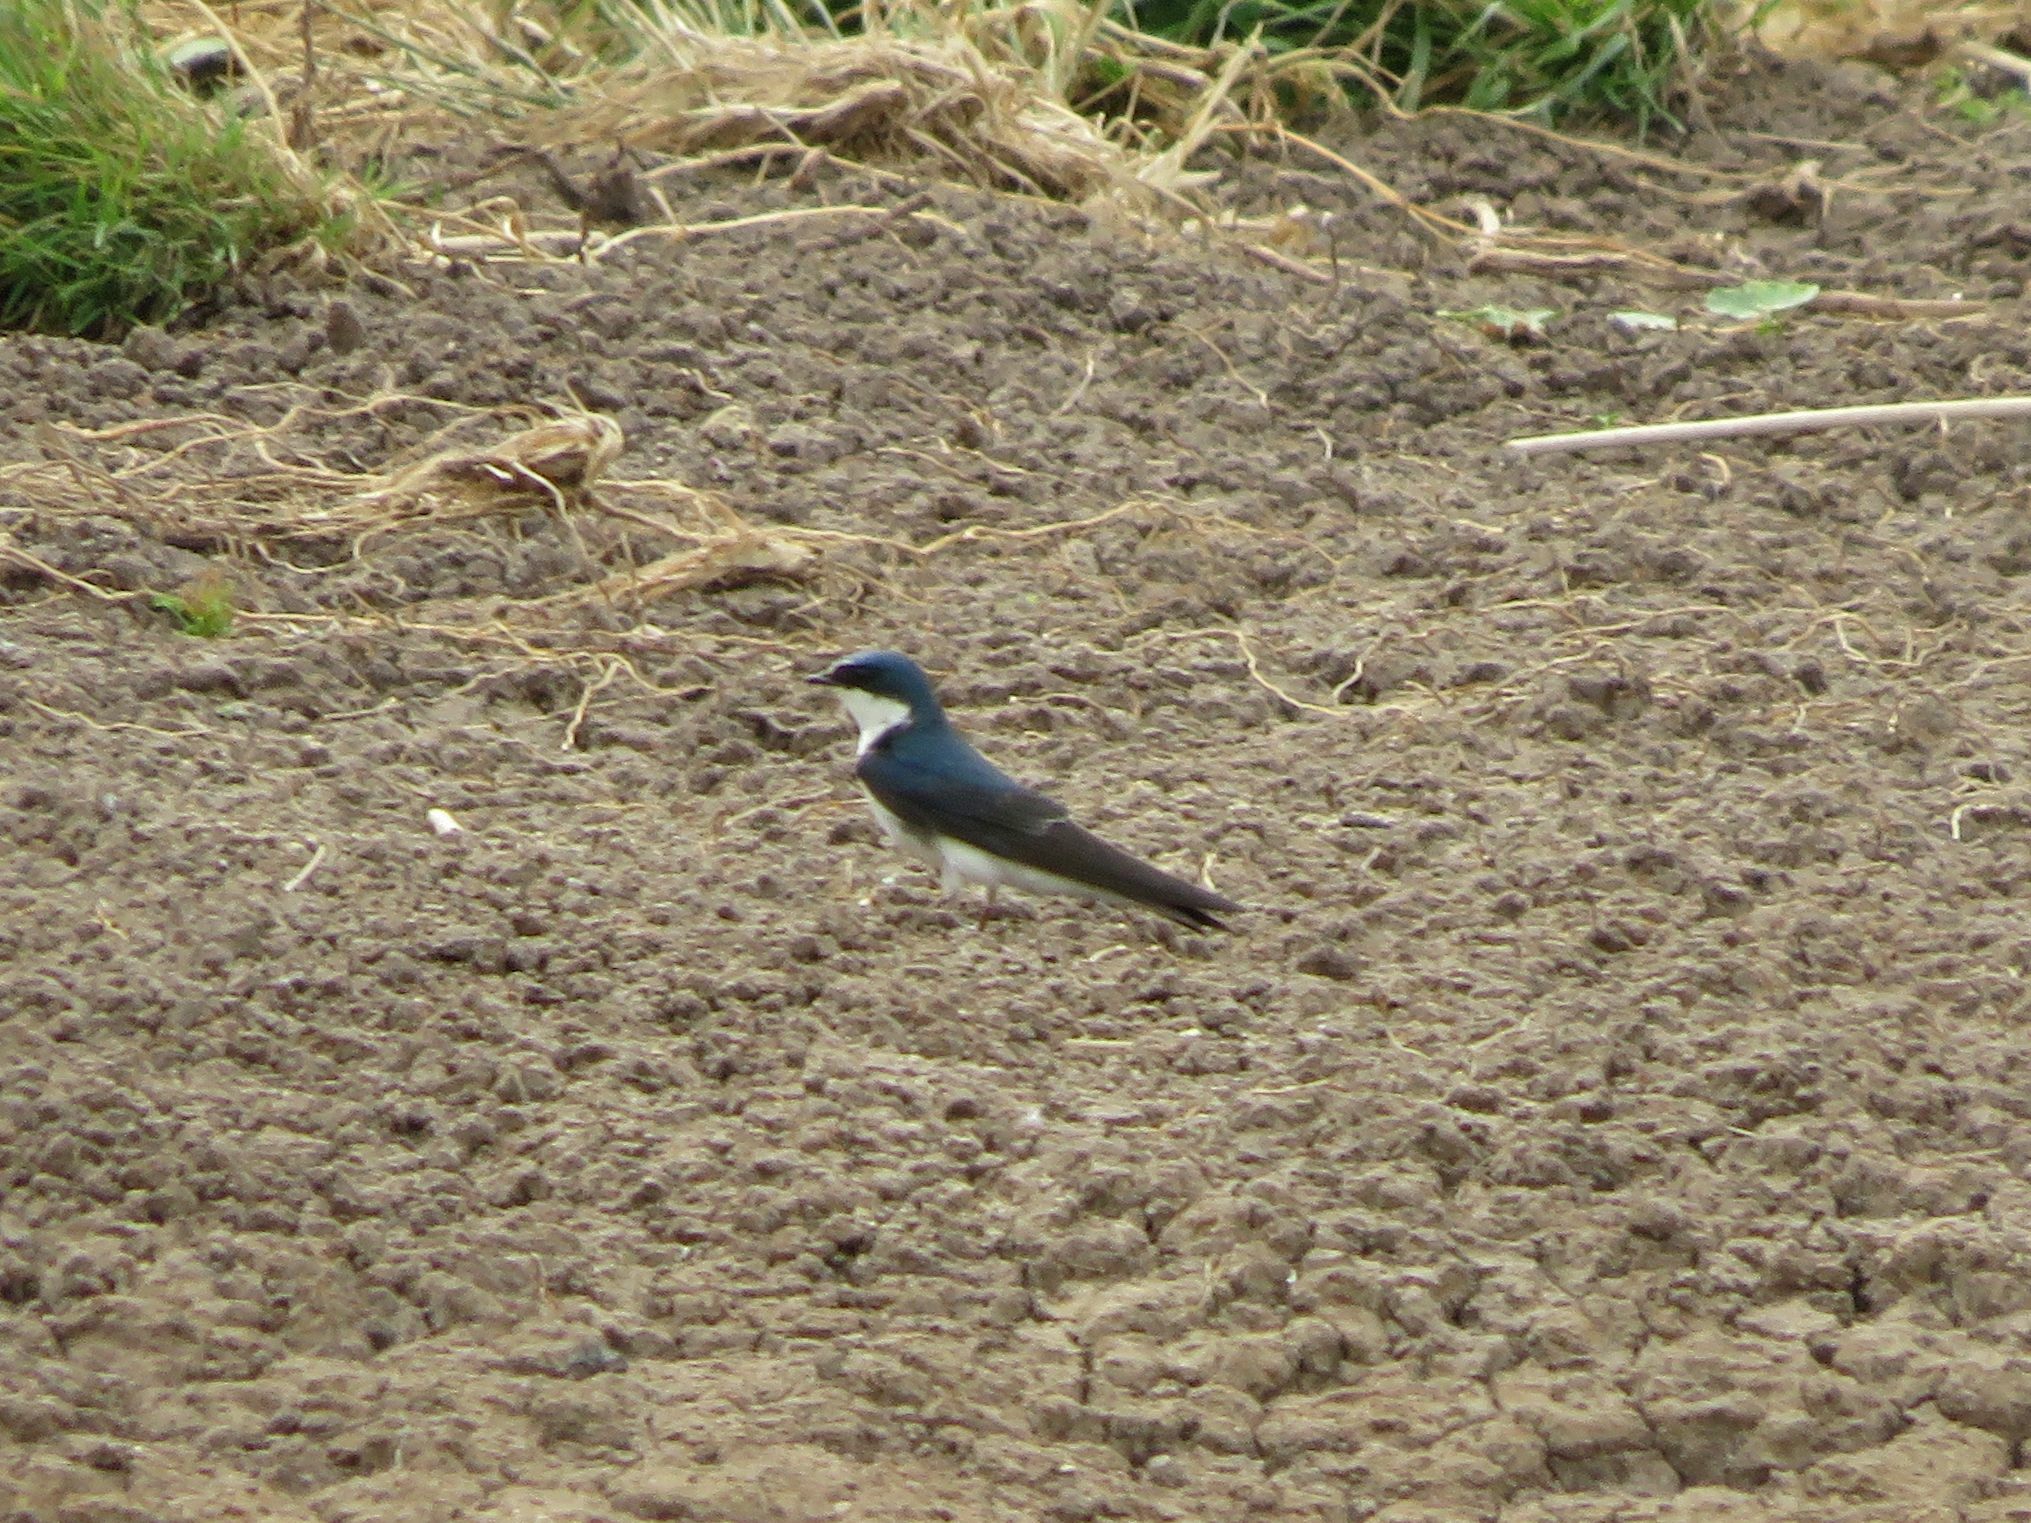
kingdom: Animalia
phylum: Chordata
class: Aves
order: Passeriformes
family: Hirundinidae
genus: Tachycineta
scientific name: Tachycineta leucorrhoa
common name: White-rumped swallow
